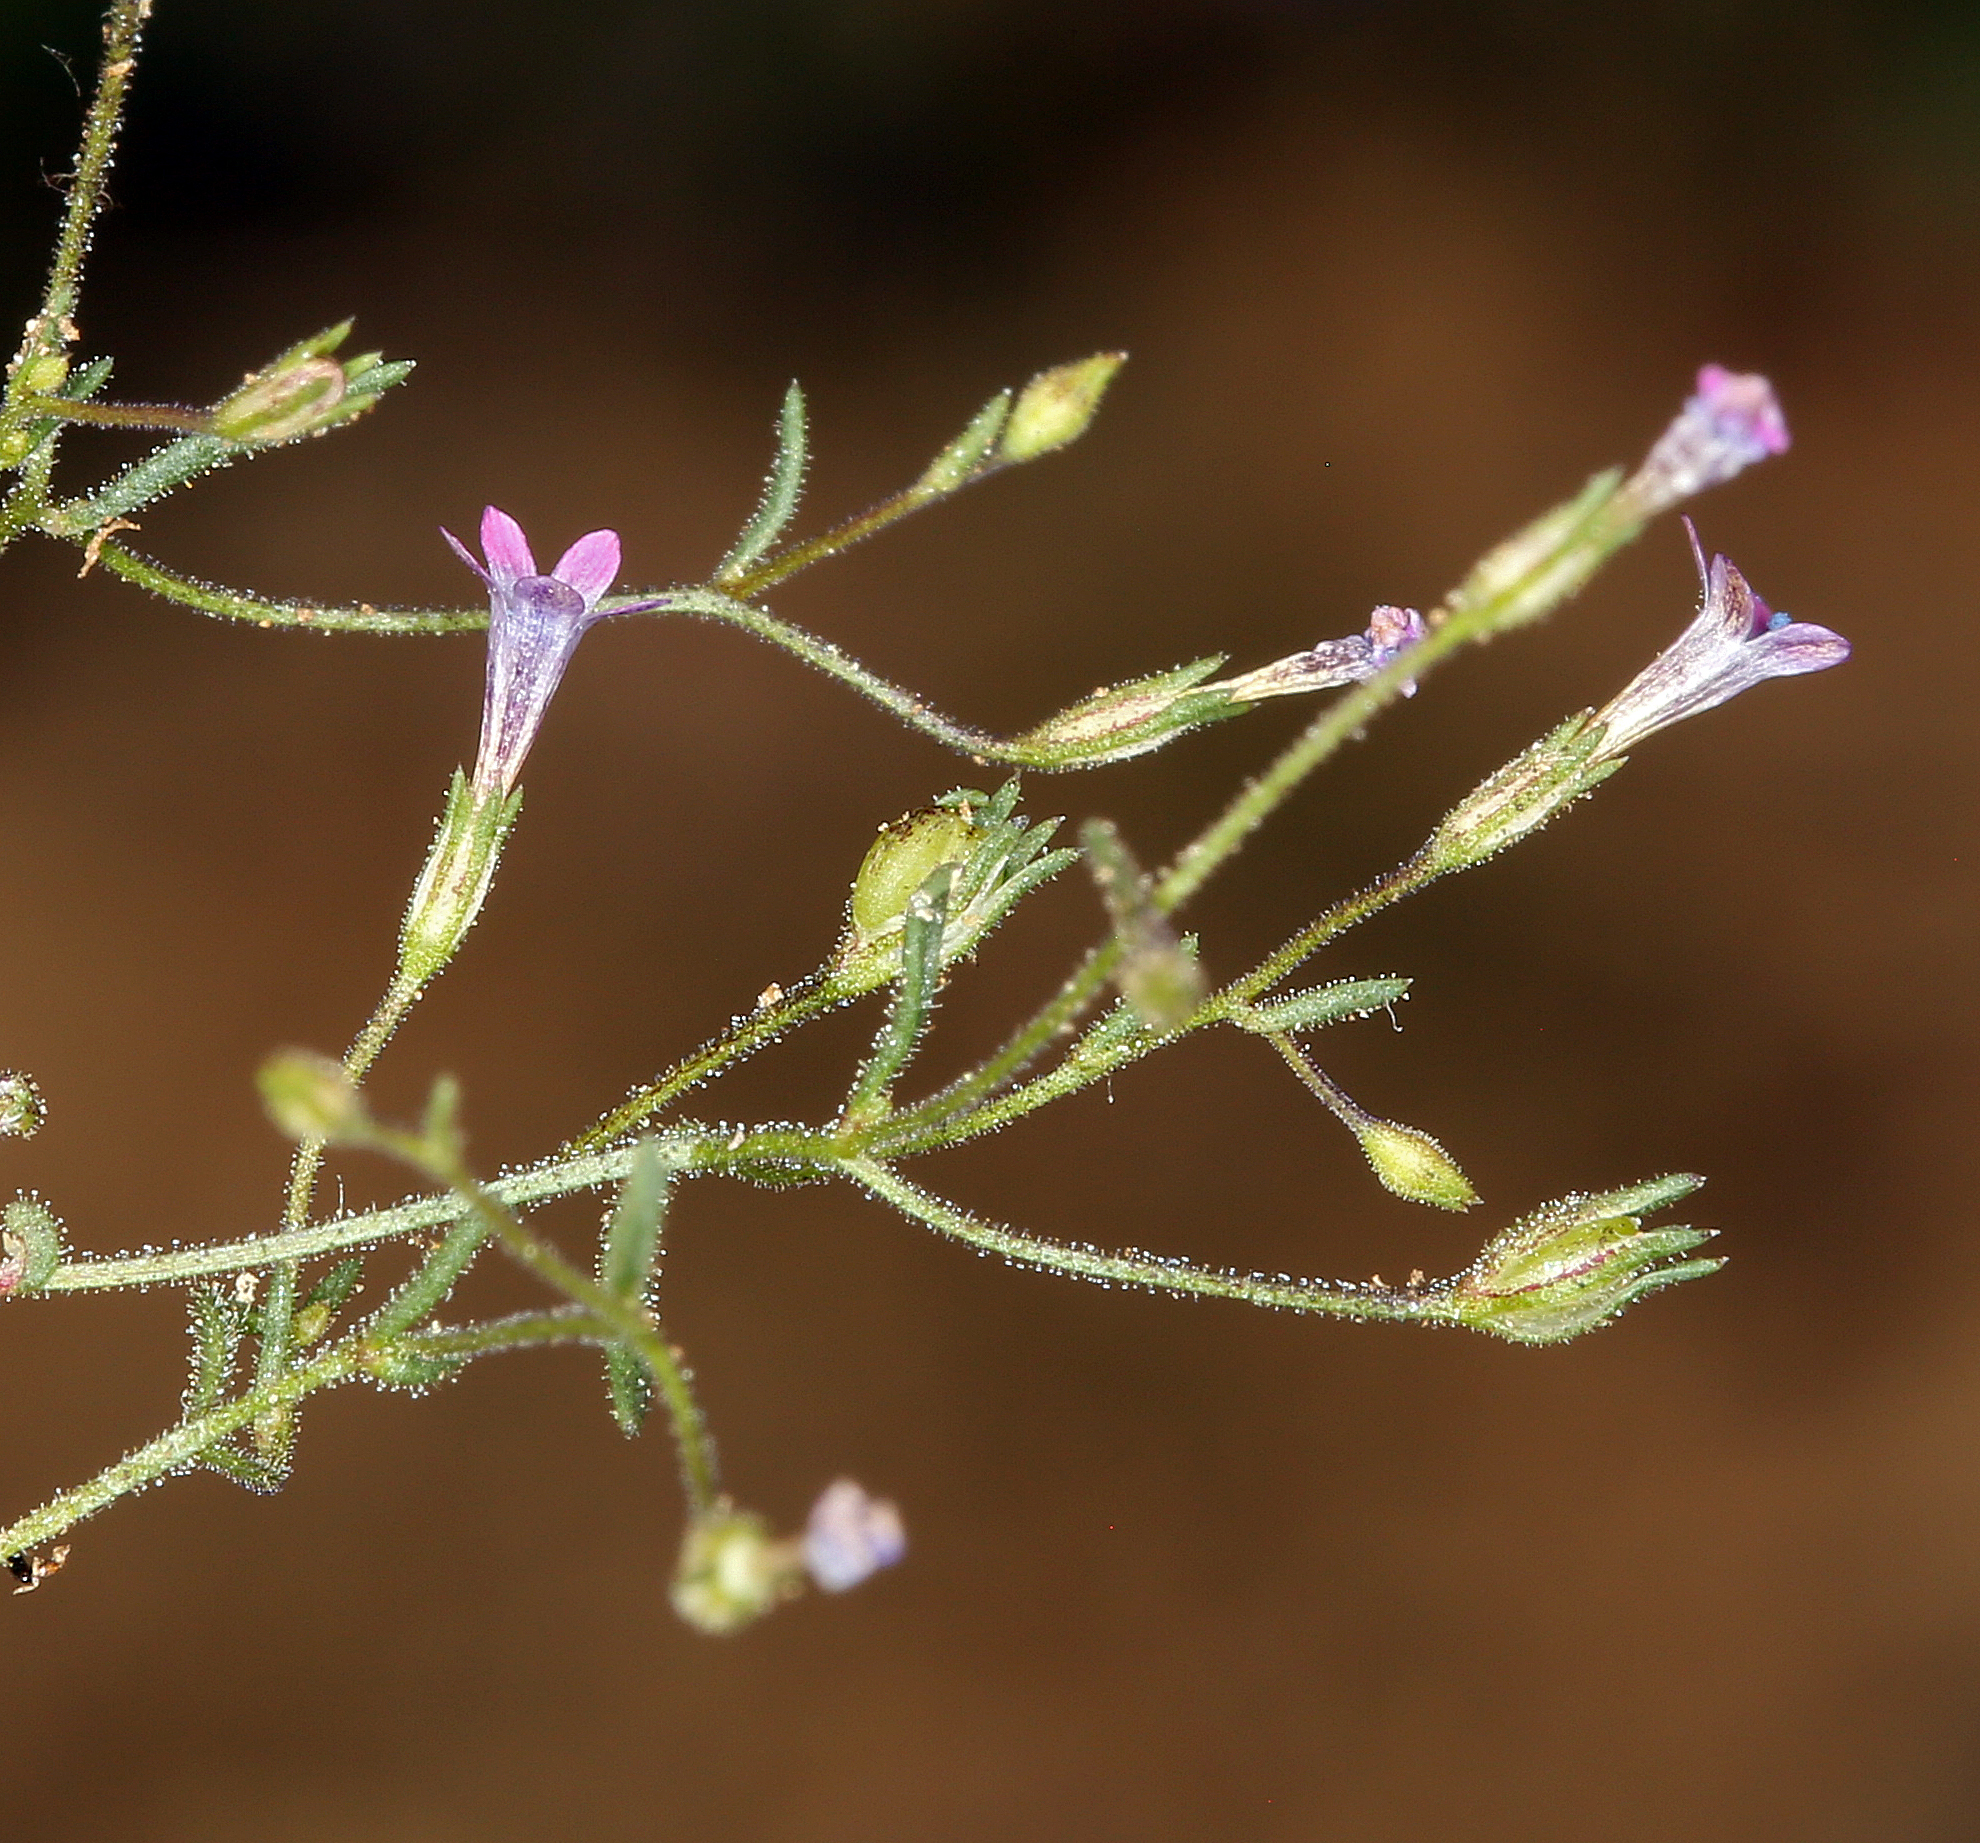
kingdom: Plantae
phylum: Tracheophyta
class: Magnoliopsida
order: Ericales
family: Polemoniaceae
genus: Navarretia
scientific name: Navarretia linearifolia
